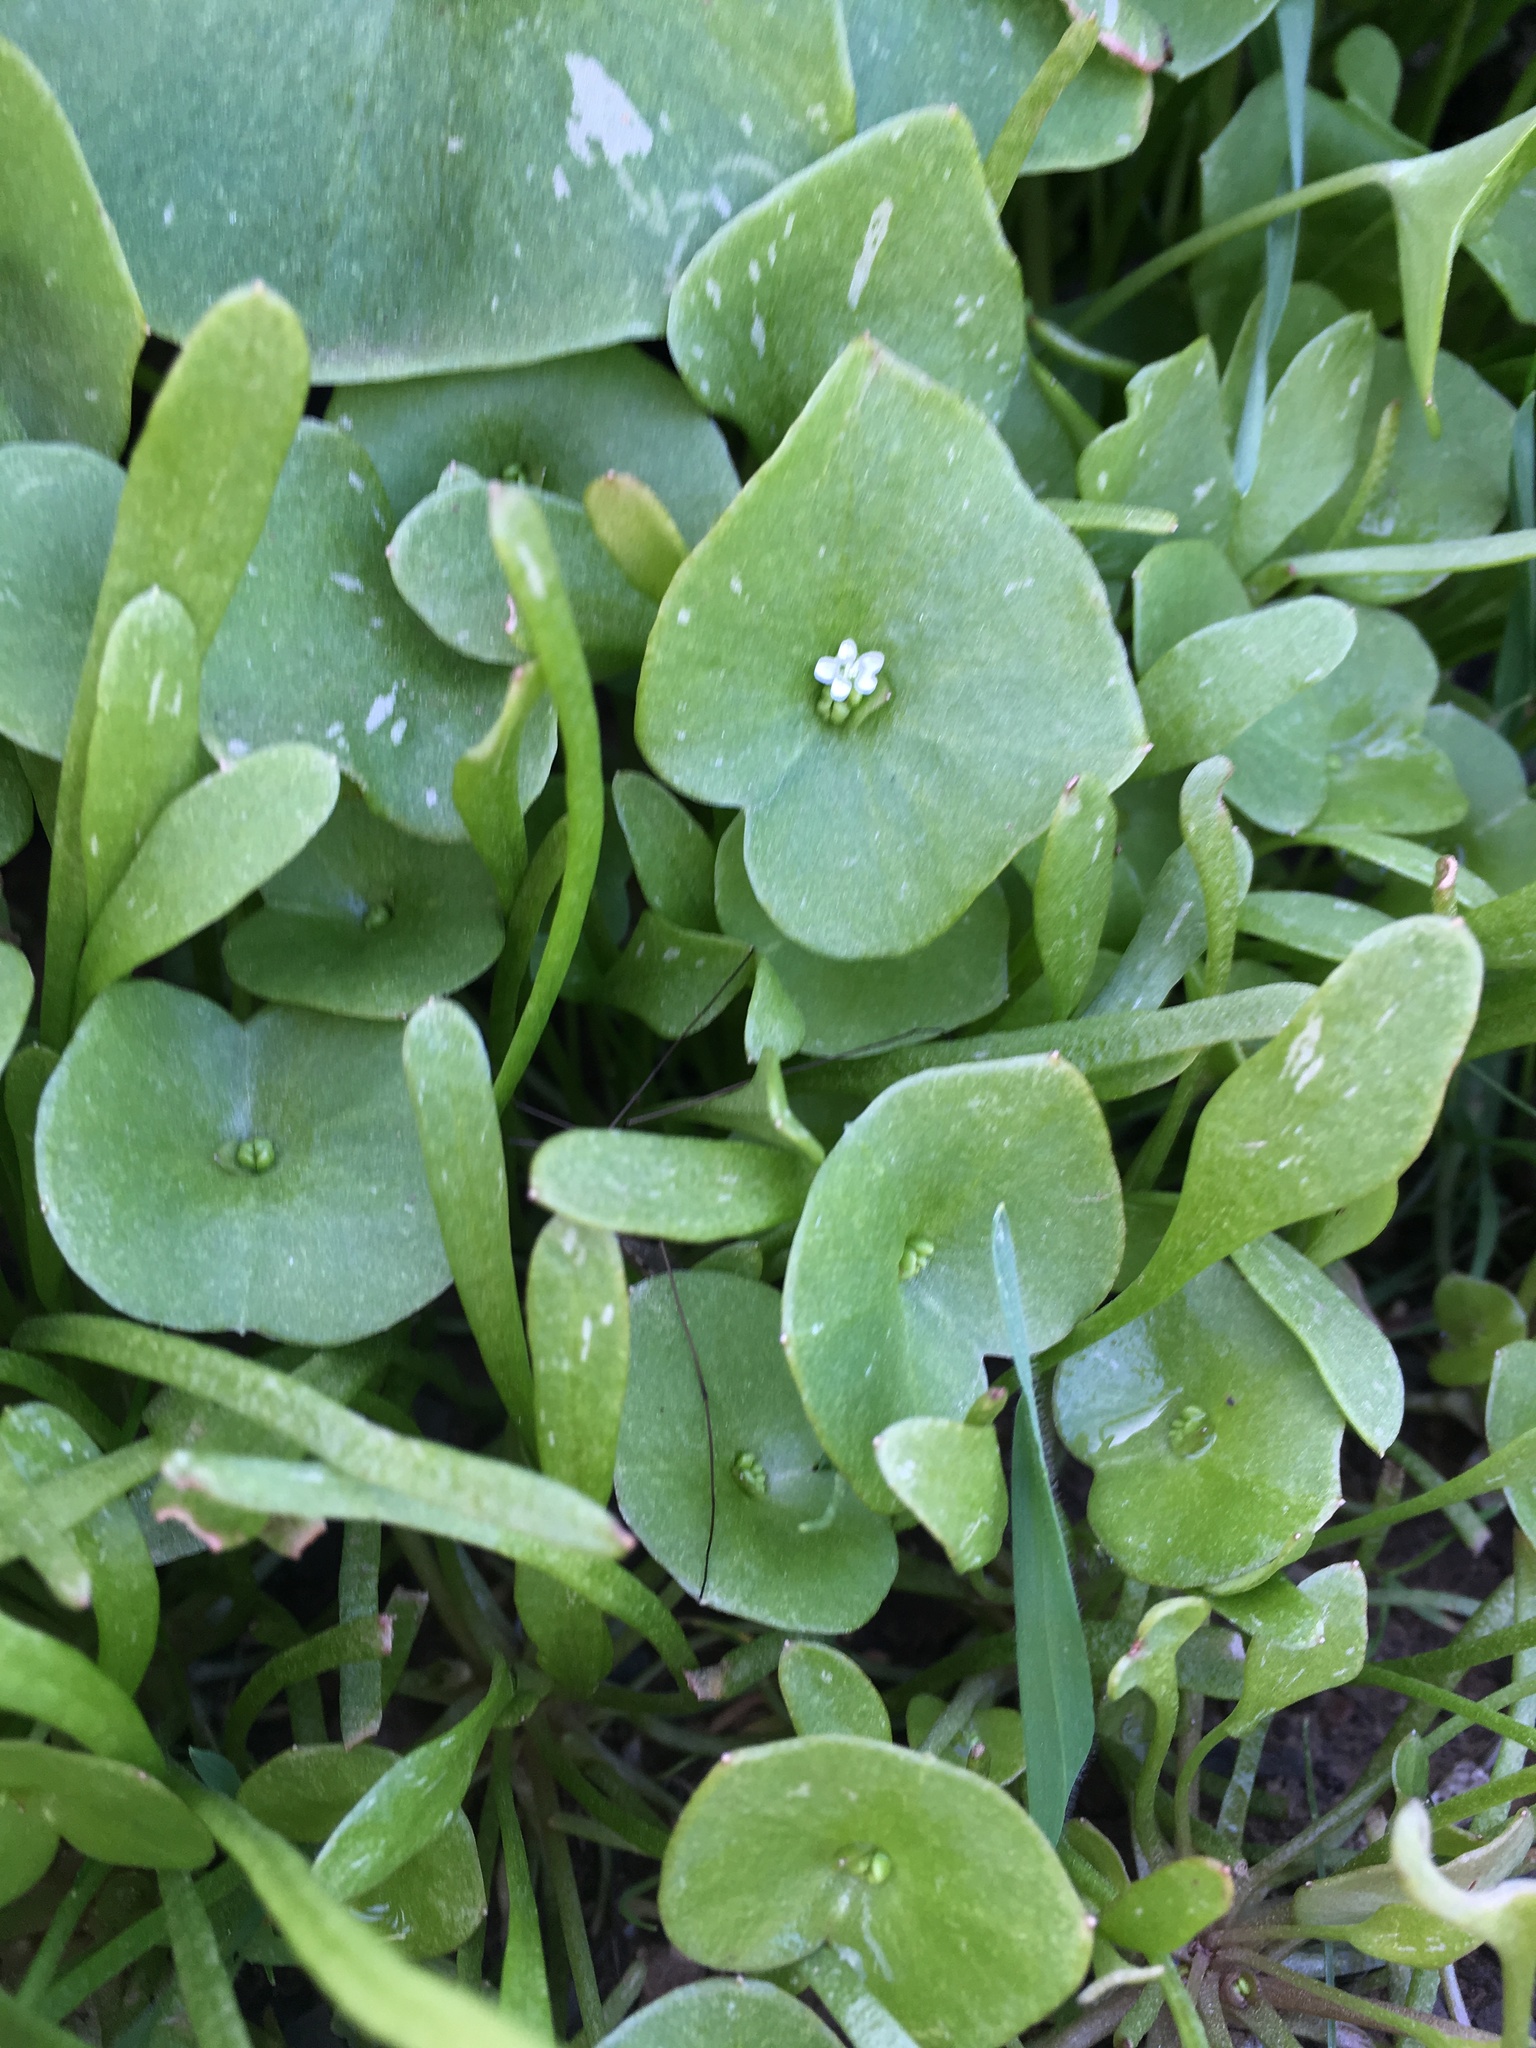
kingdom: Plantae
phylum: Tracheophyta
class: Magnoliopsida
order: Caryophyllales
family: Montiaceae
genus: Claytonia
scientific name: Claytonia perfoliata
